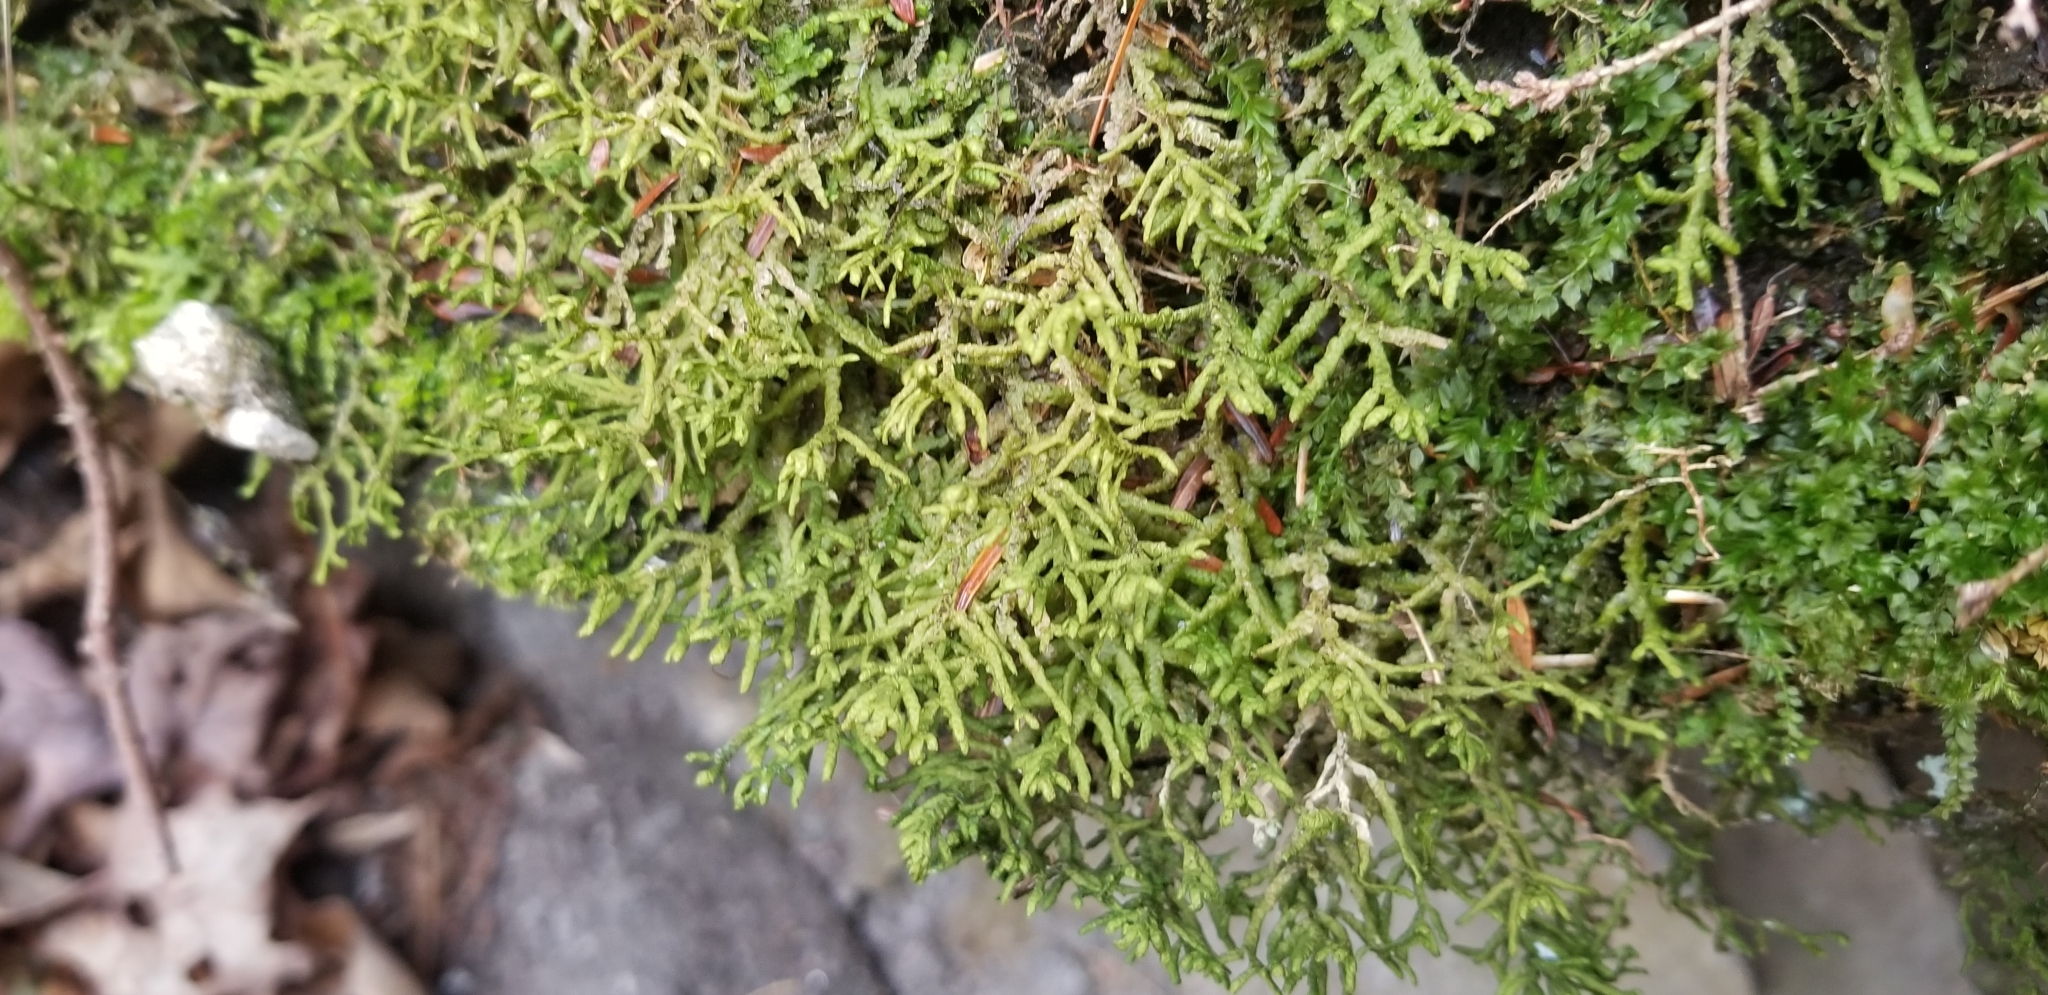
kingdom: Plantae
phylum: Marchantiophyta
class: Jungermanniopsida
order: Porellales
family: Porellaceae
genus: Porella
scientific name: Porella platyphylla
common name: Wall scalewort
